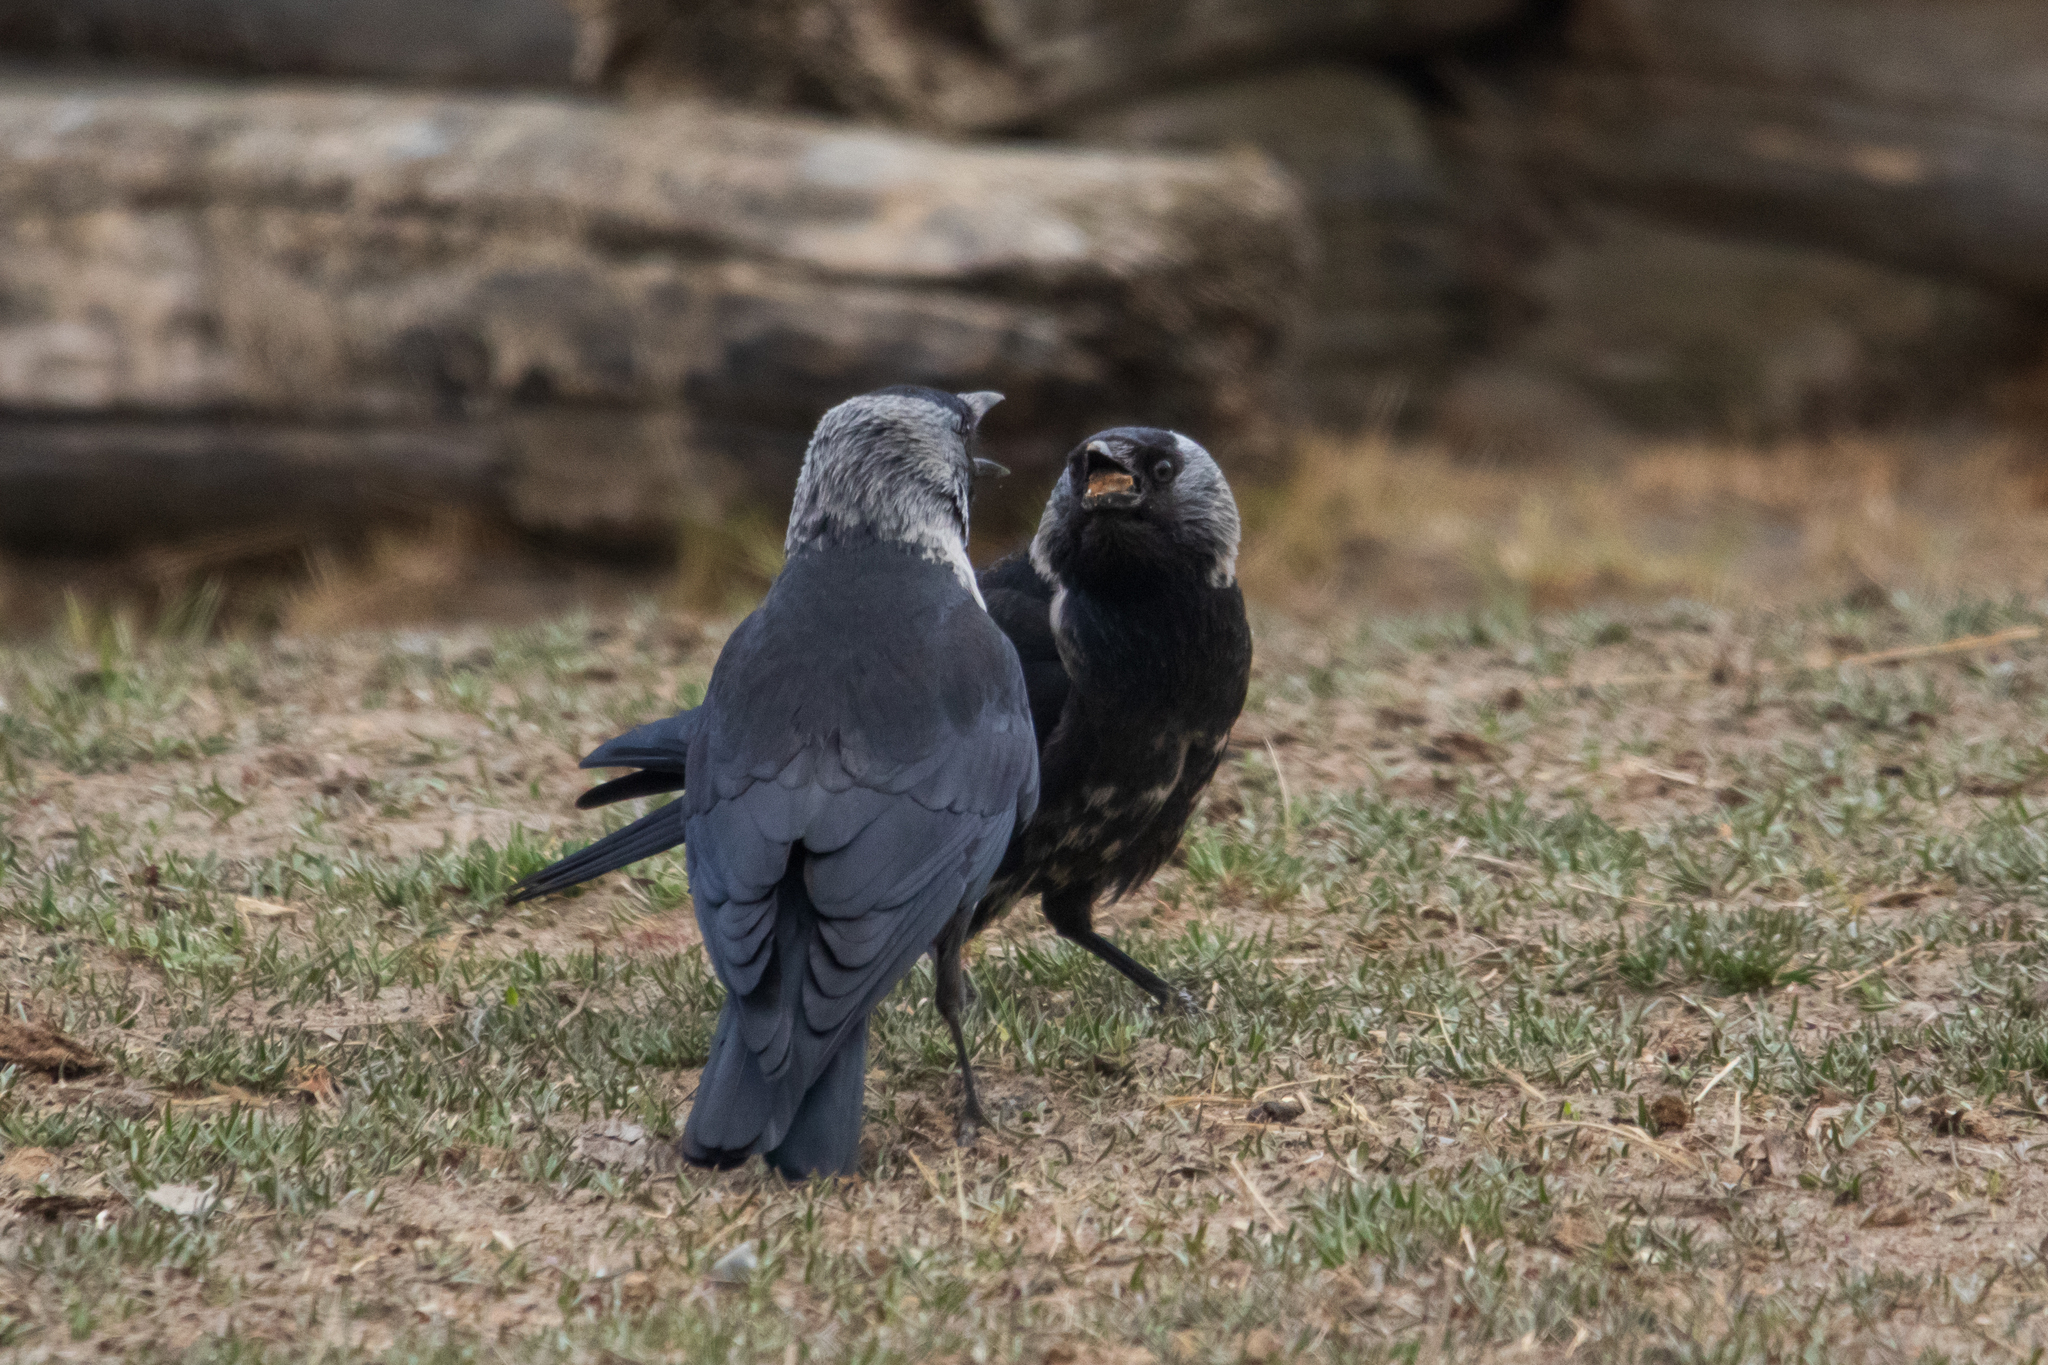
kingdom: Animalia
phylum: Chordata
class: Aves
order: Passeriformes
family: Corvidae
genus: Coloeus
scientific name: Coloeus dauuricus
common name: Daurian jackdaw
